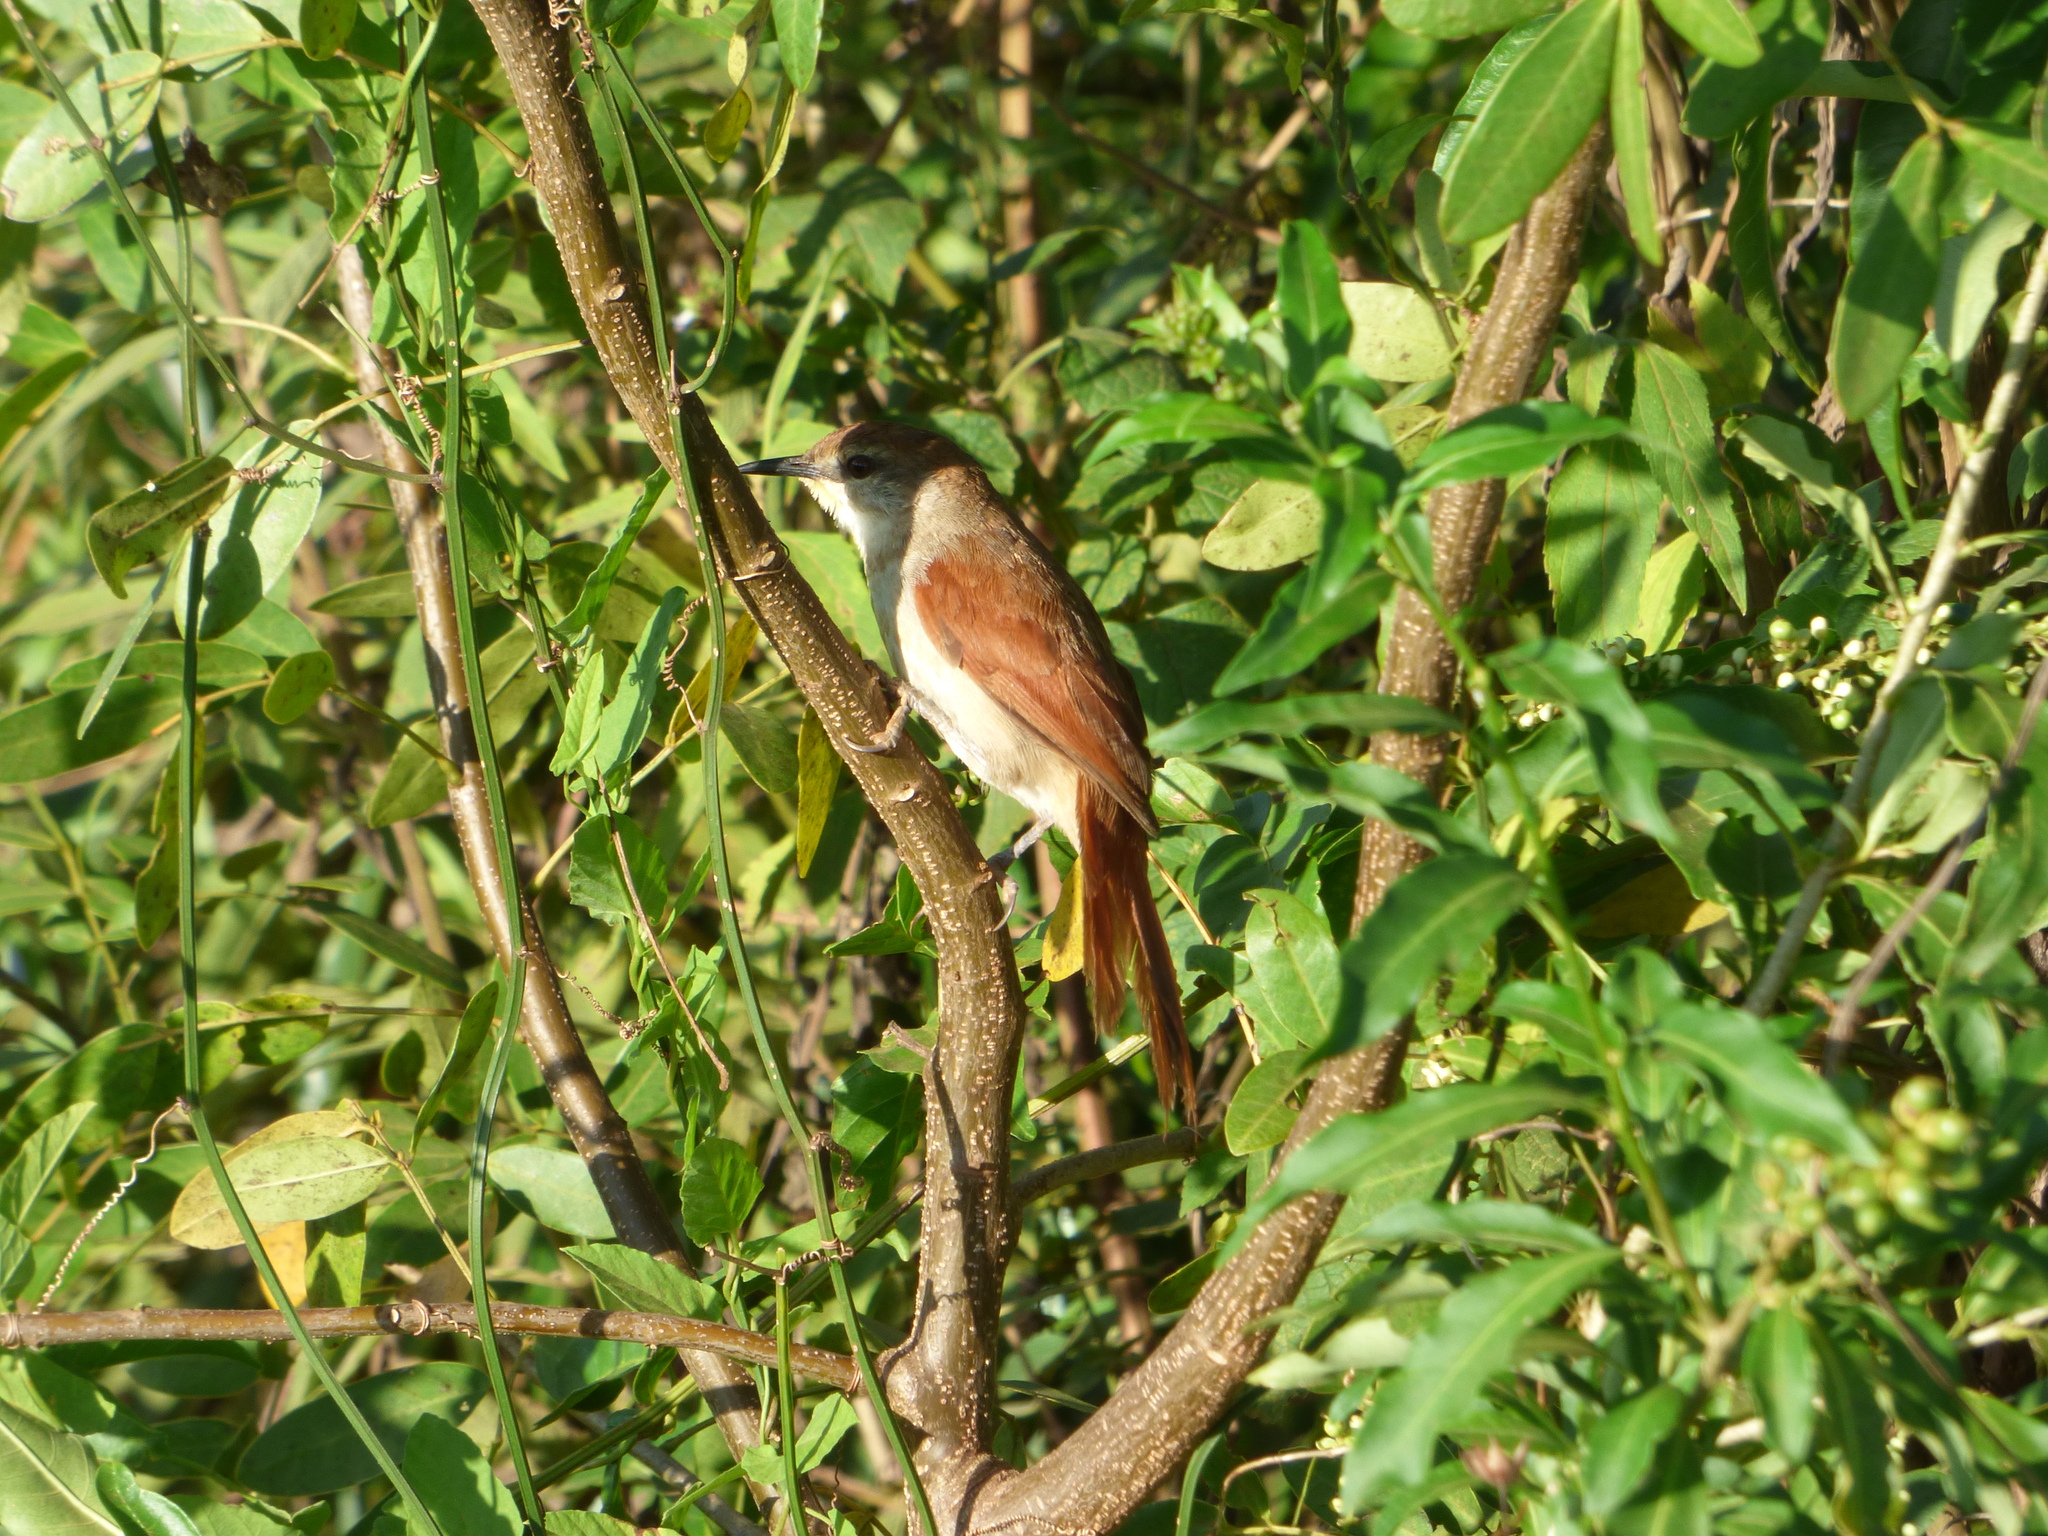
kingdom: Animalia
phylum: Chordata
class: Aves
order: Passeriformes
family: Furnariidae
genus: Certhiaxis
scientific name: Certhiaxis cinnamomeus
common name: Yellow-chinned spinetail
